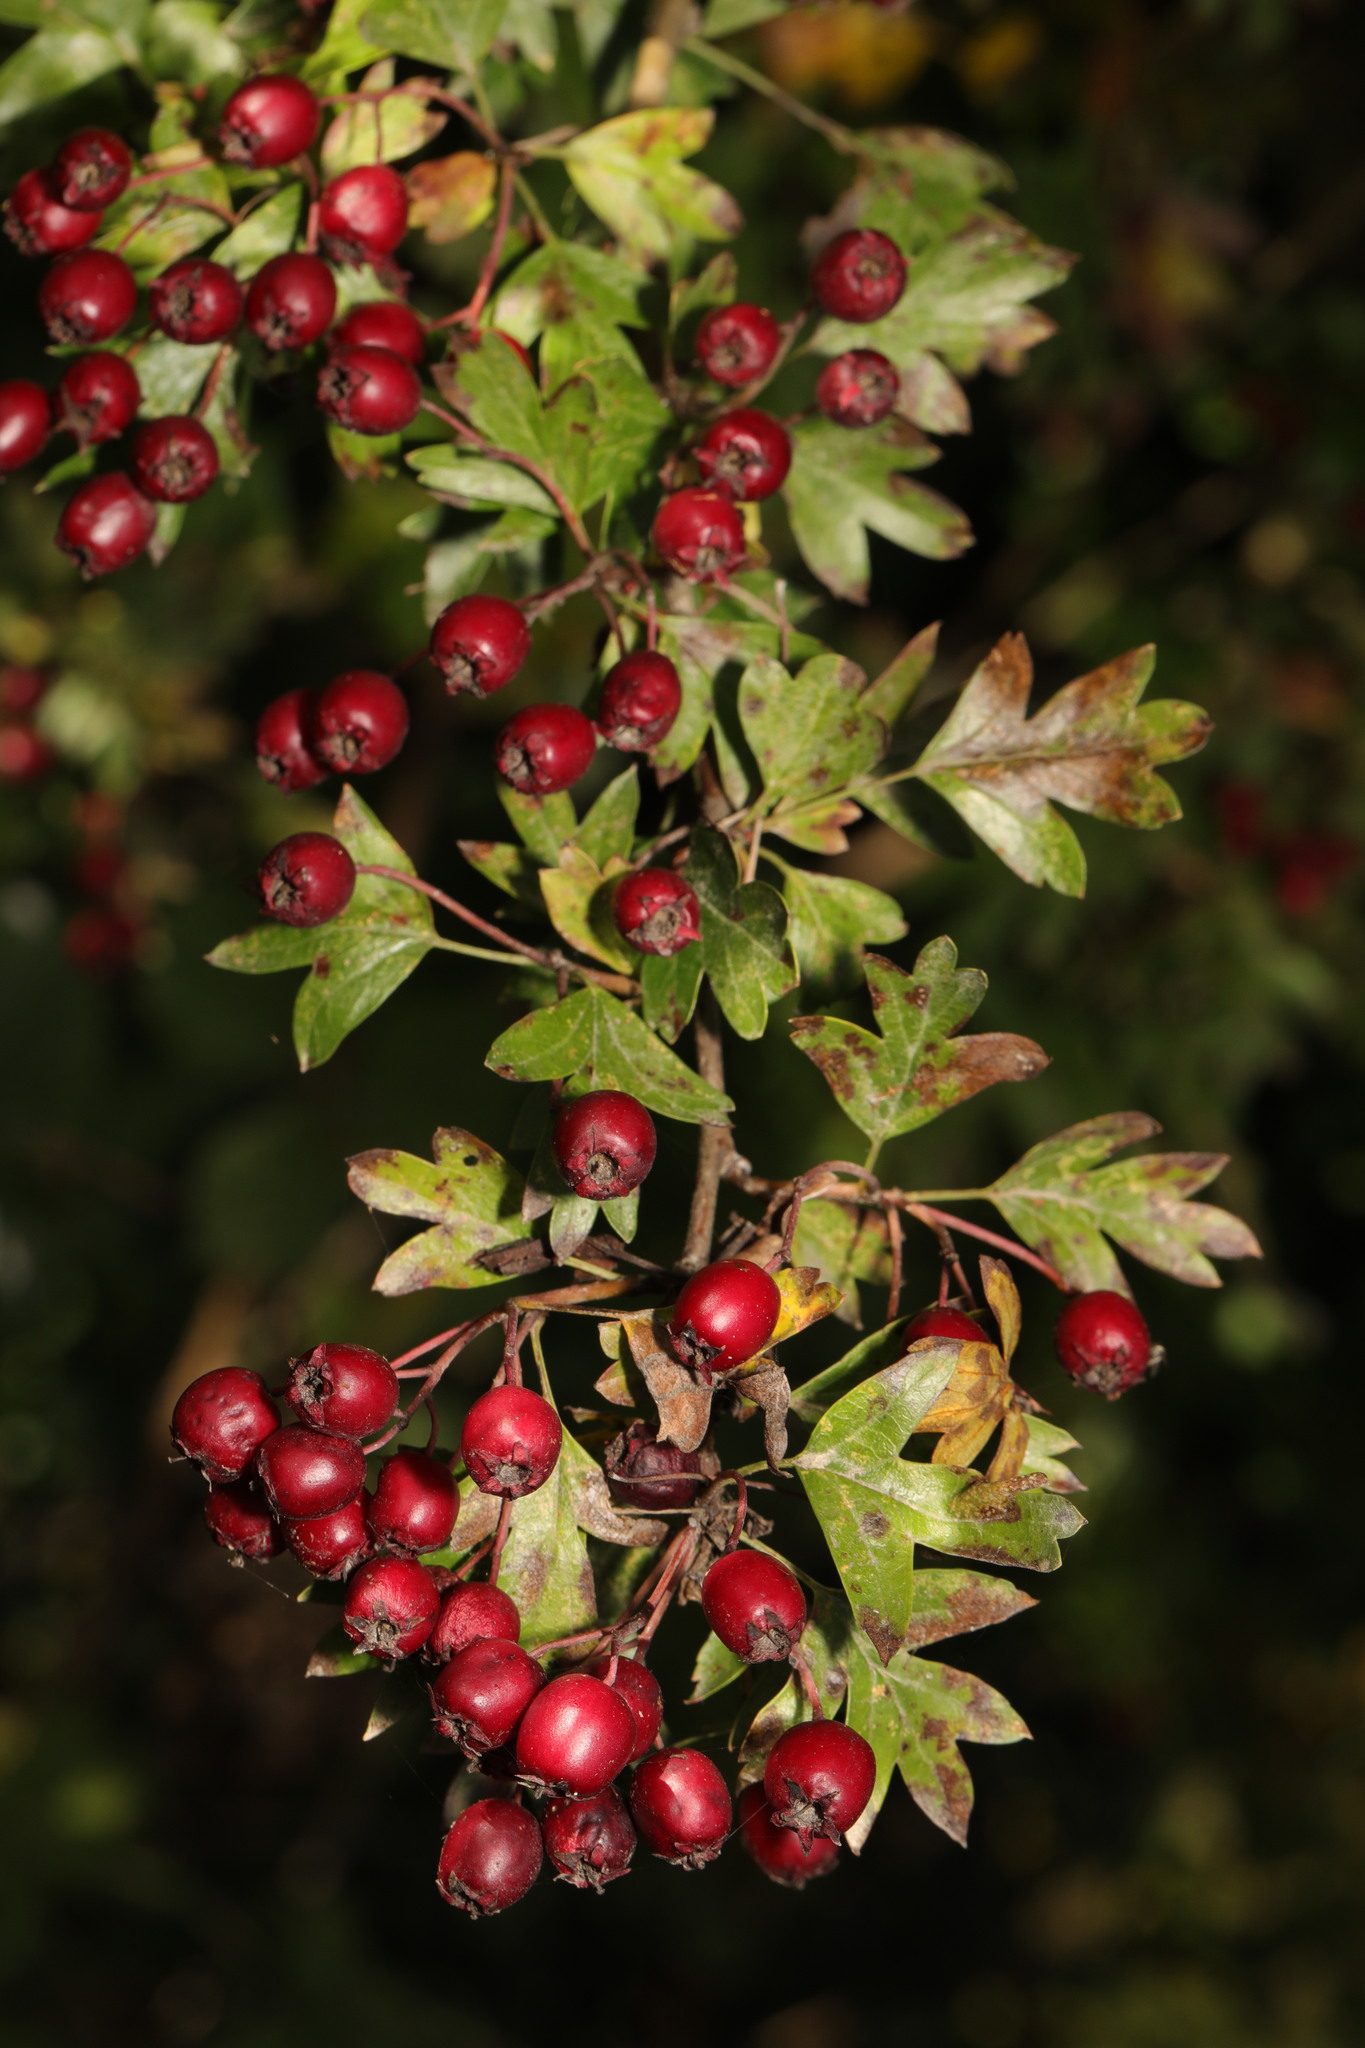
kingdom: Plantae
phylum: Tracheophyta
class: Magnoliopsida
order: Rosales
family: Rosaceae
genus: Crataegus
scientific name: Crataegus monogyna
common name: Hawthorn
